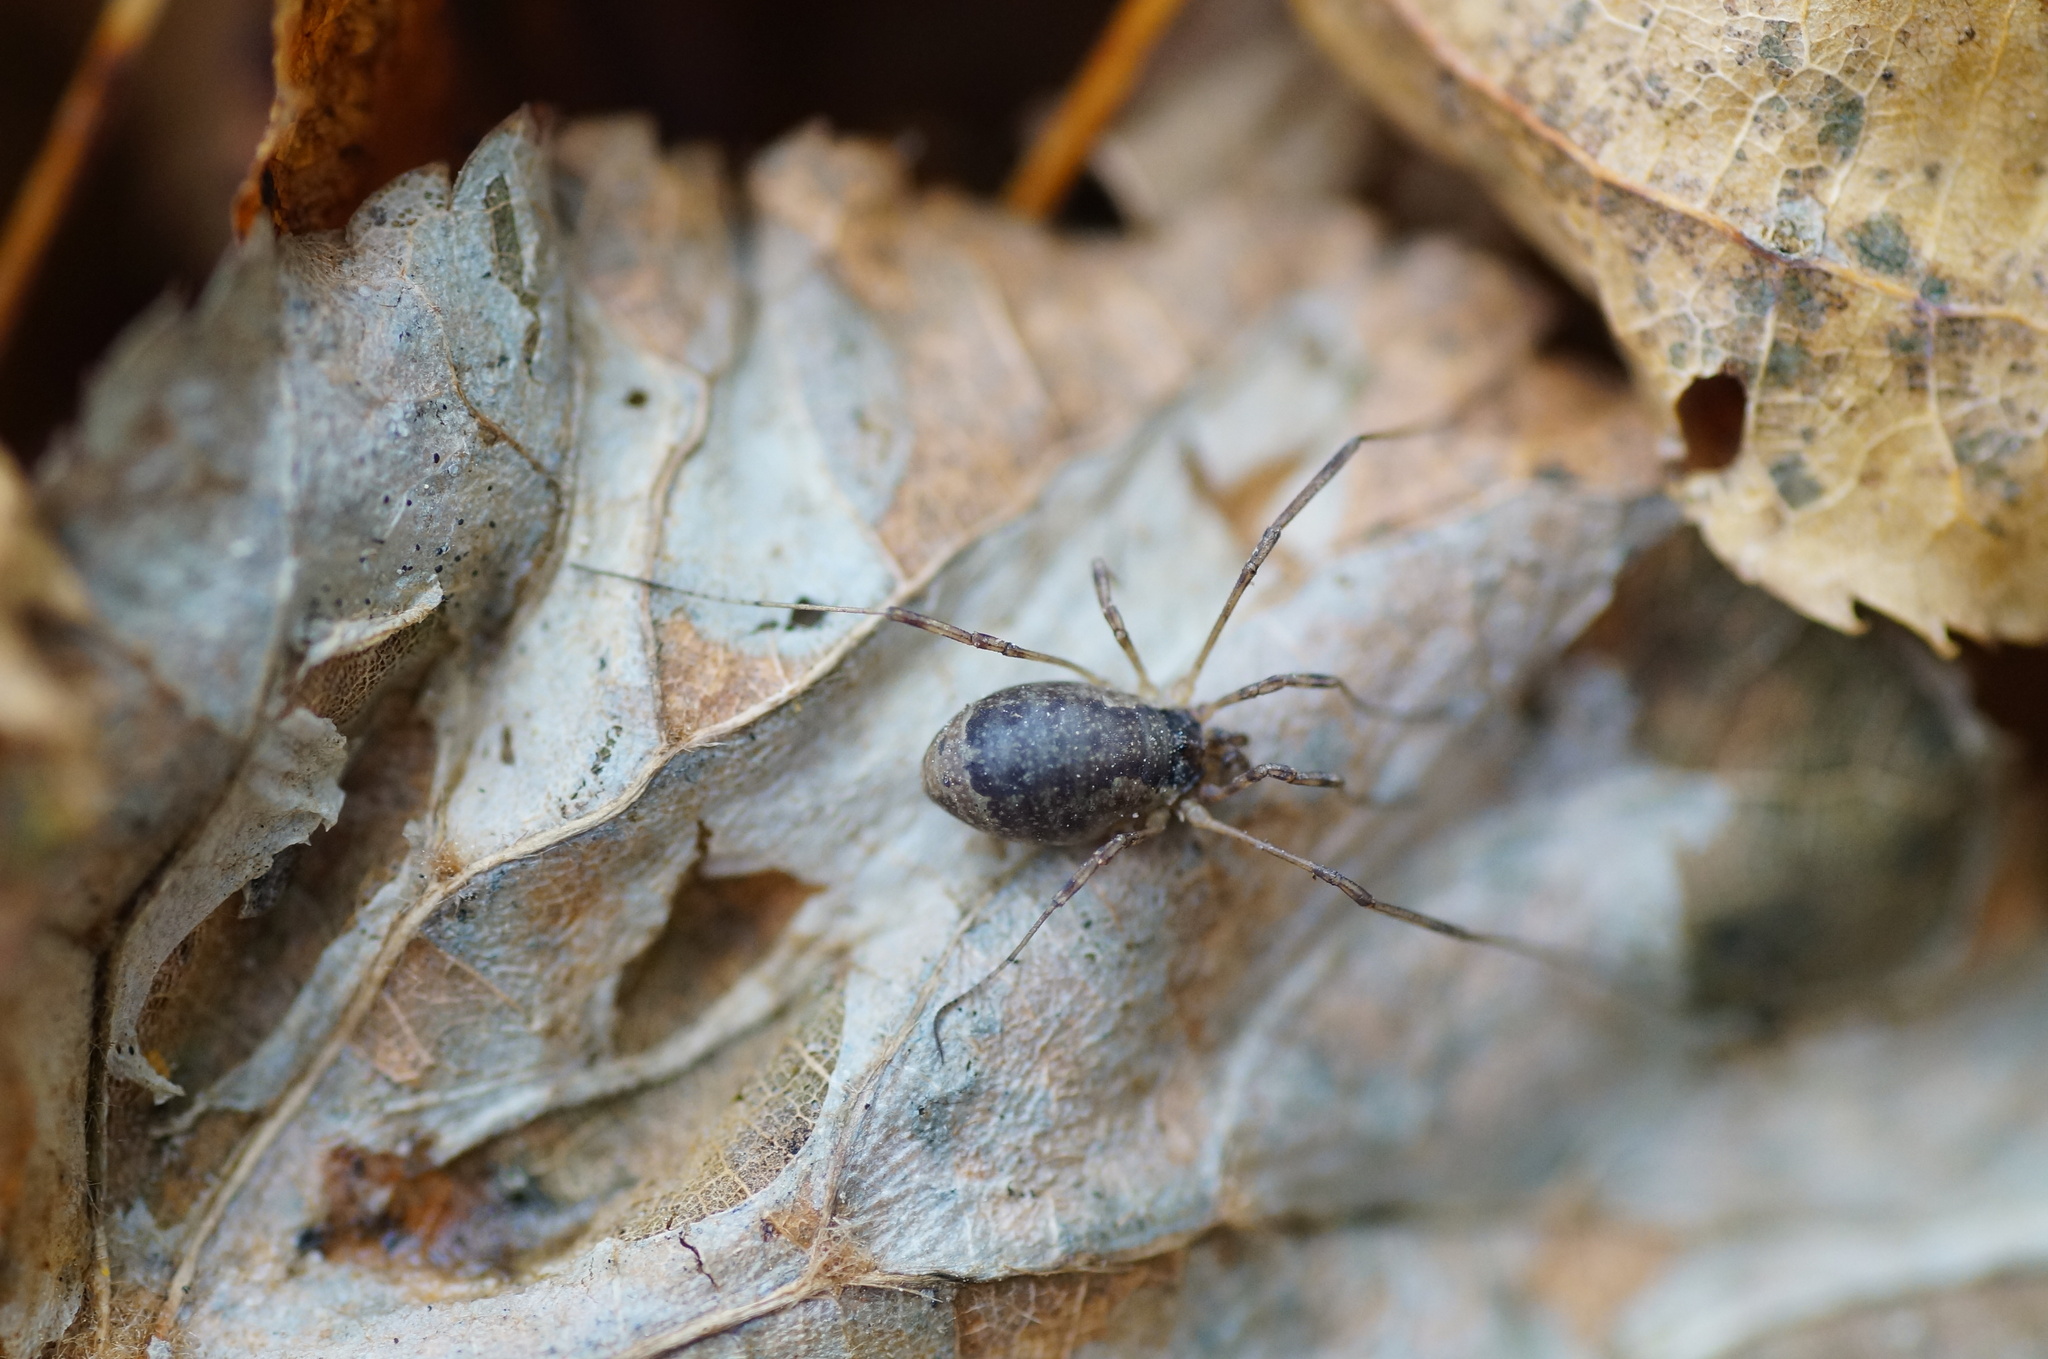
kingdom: Animalia
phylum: Arthropoda
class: Arachnida
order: Opiliones
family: Phalangiidae
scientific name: Phalangiidae
